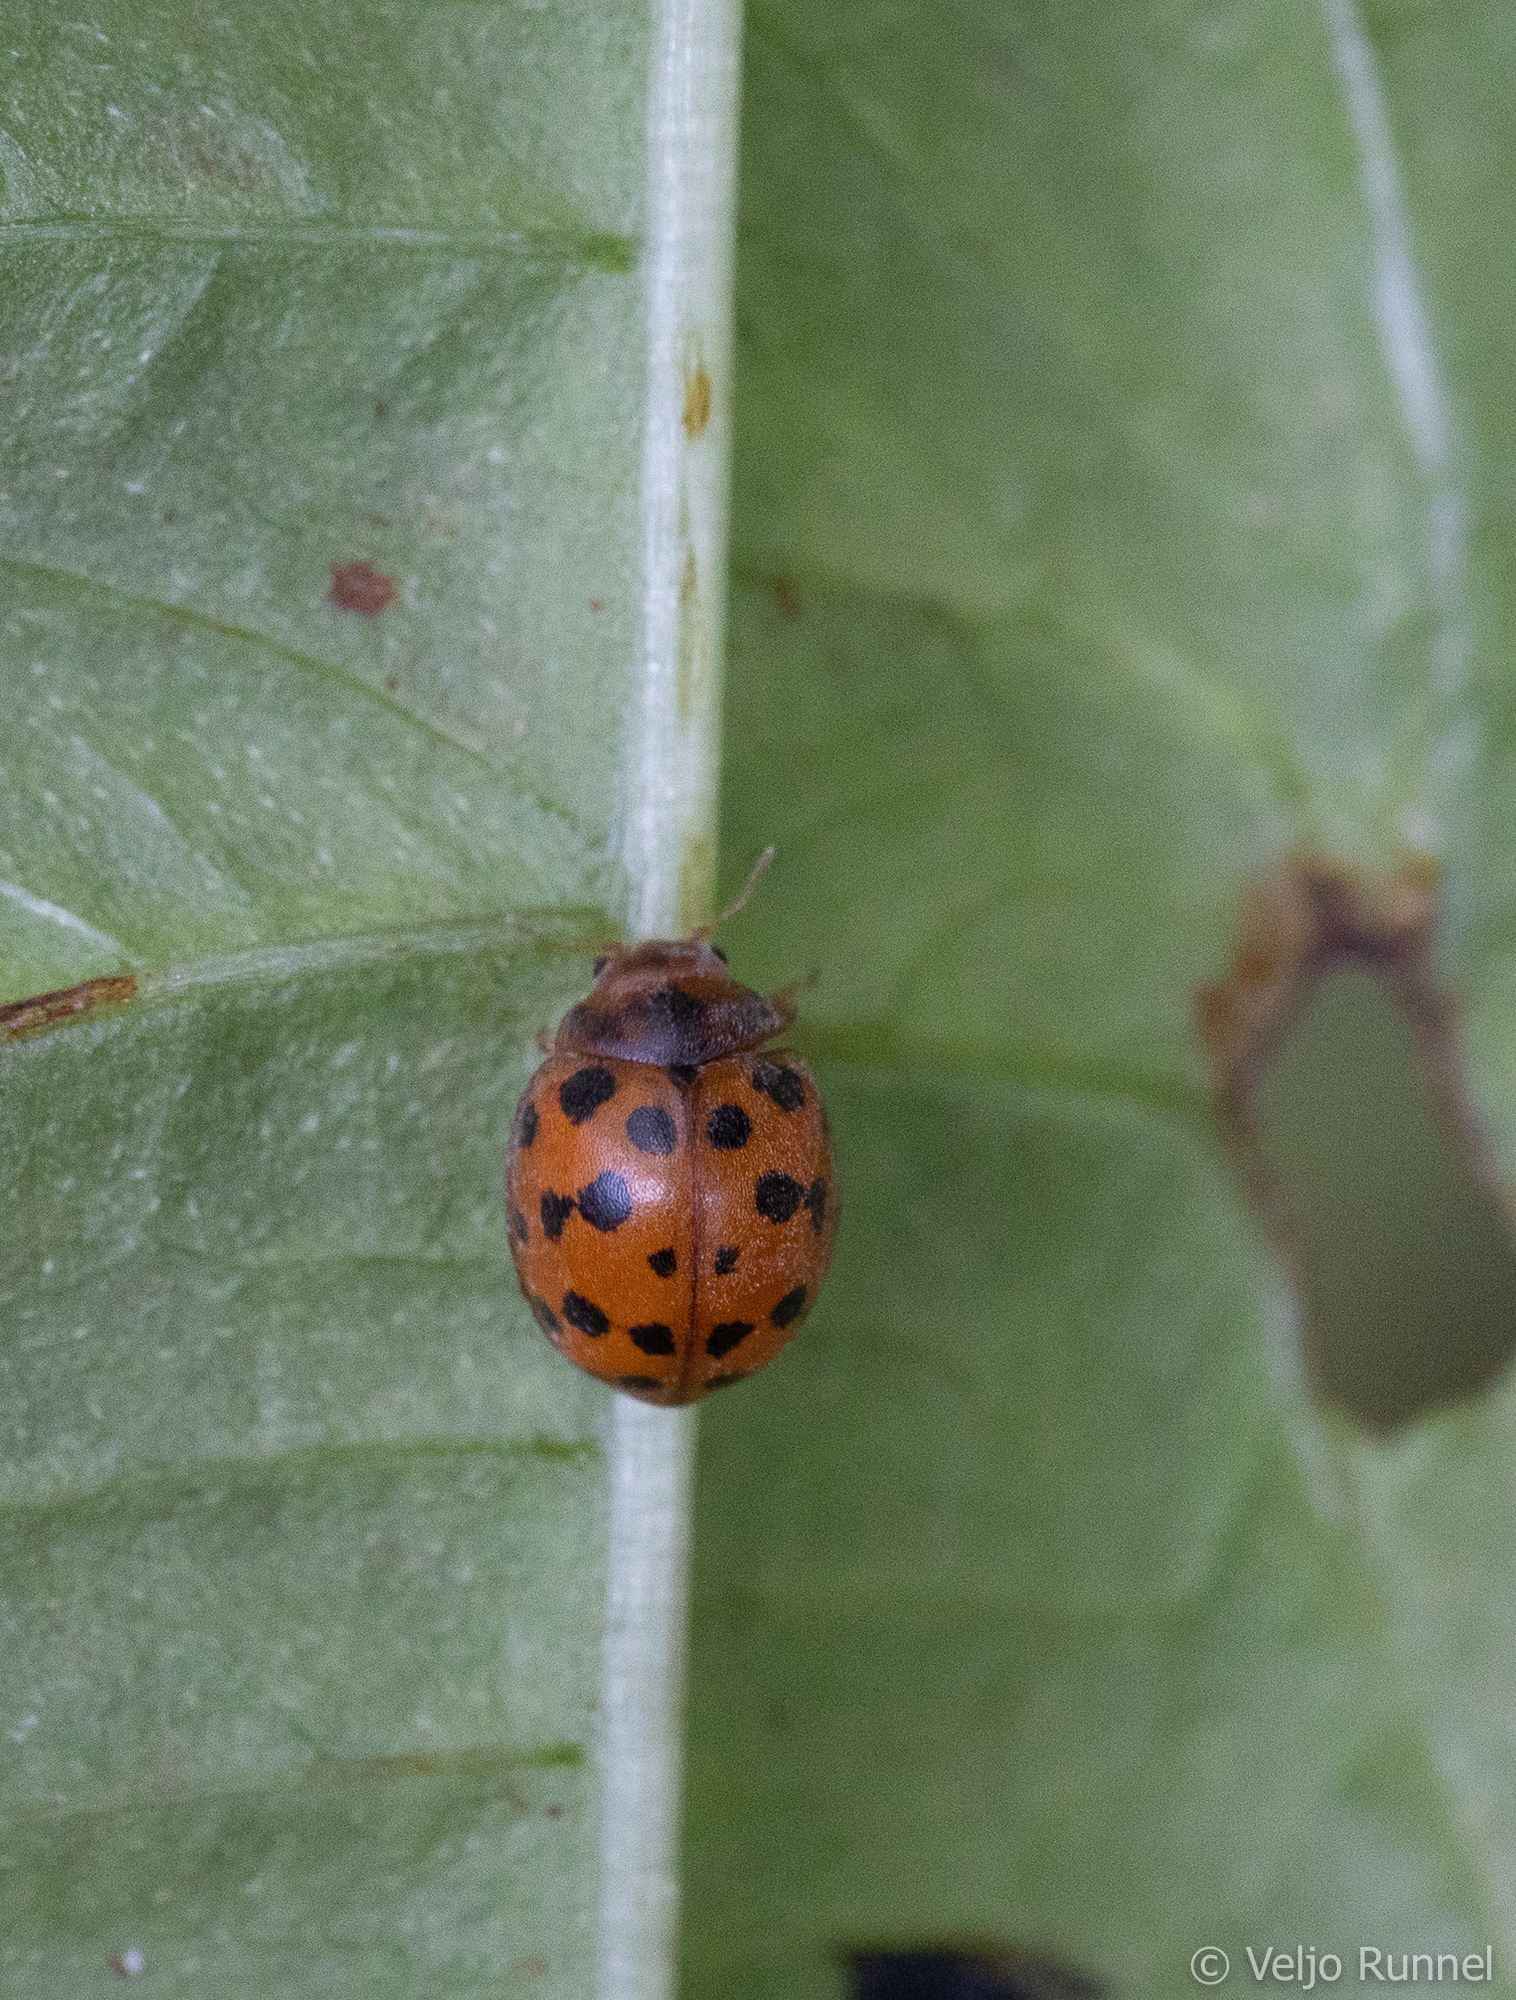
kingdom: Animalia
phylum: Arthropoda
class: Insecta
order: Coleoptera
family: Coccinellidae
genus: Subcoccinella
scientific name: Subcoccinella vigintiquatuorpunctata
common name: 24-spot ladybird
